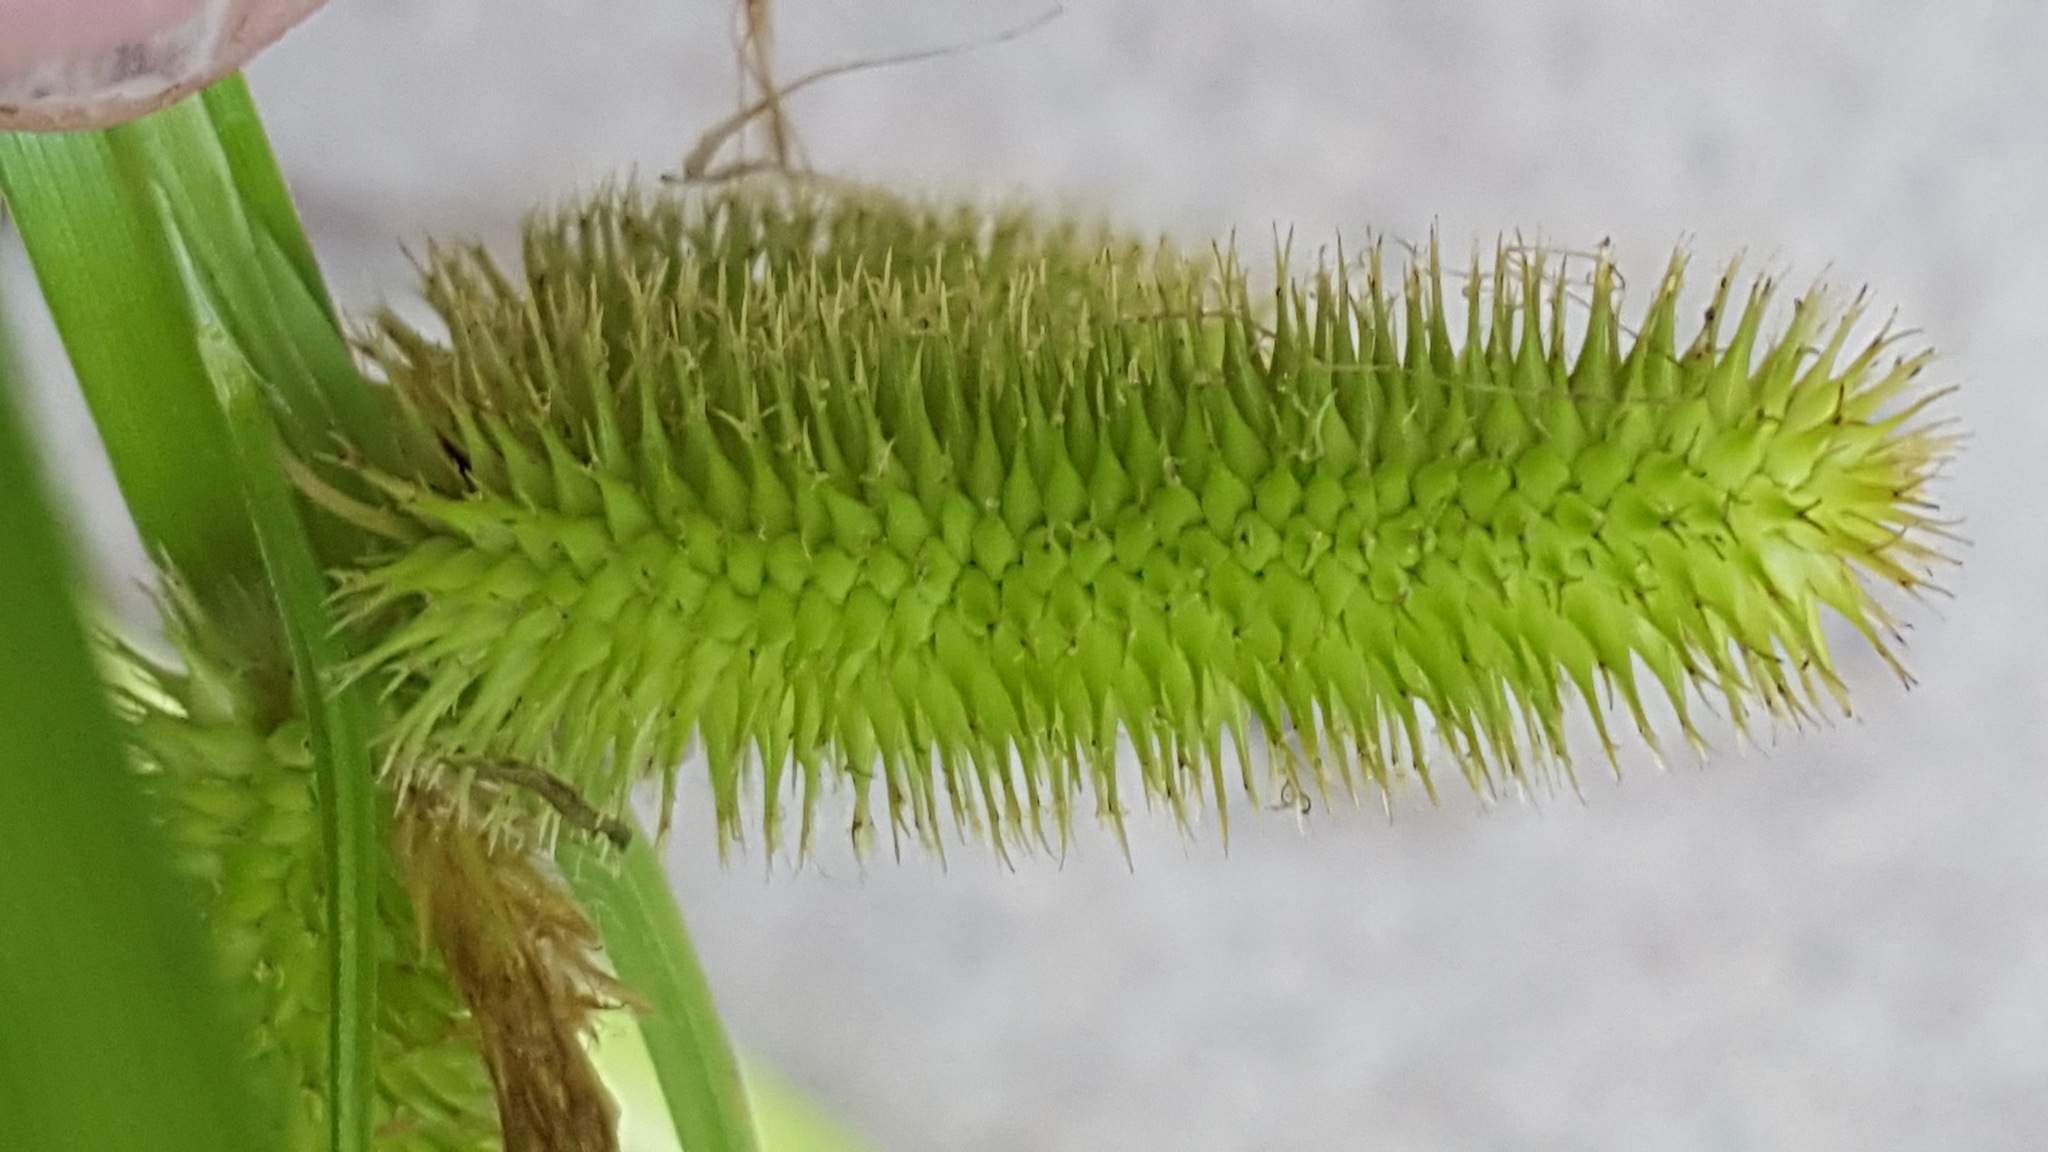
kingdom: Plantae
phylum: Tracheophyta
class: Liliopsida
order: Poales
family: Cyperaceae
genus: Carex
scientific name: Carex comosa
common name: Bristly sedge
